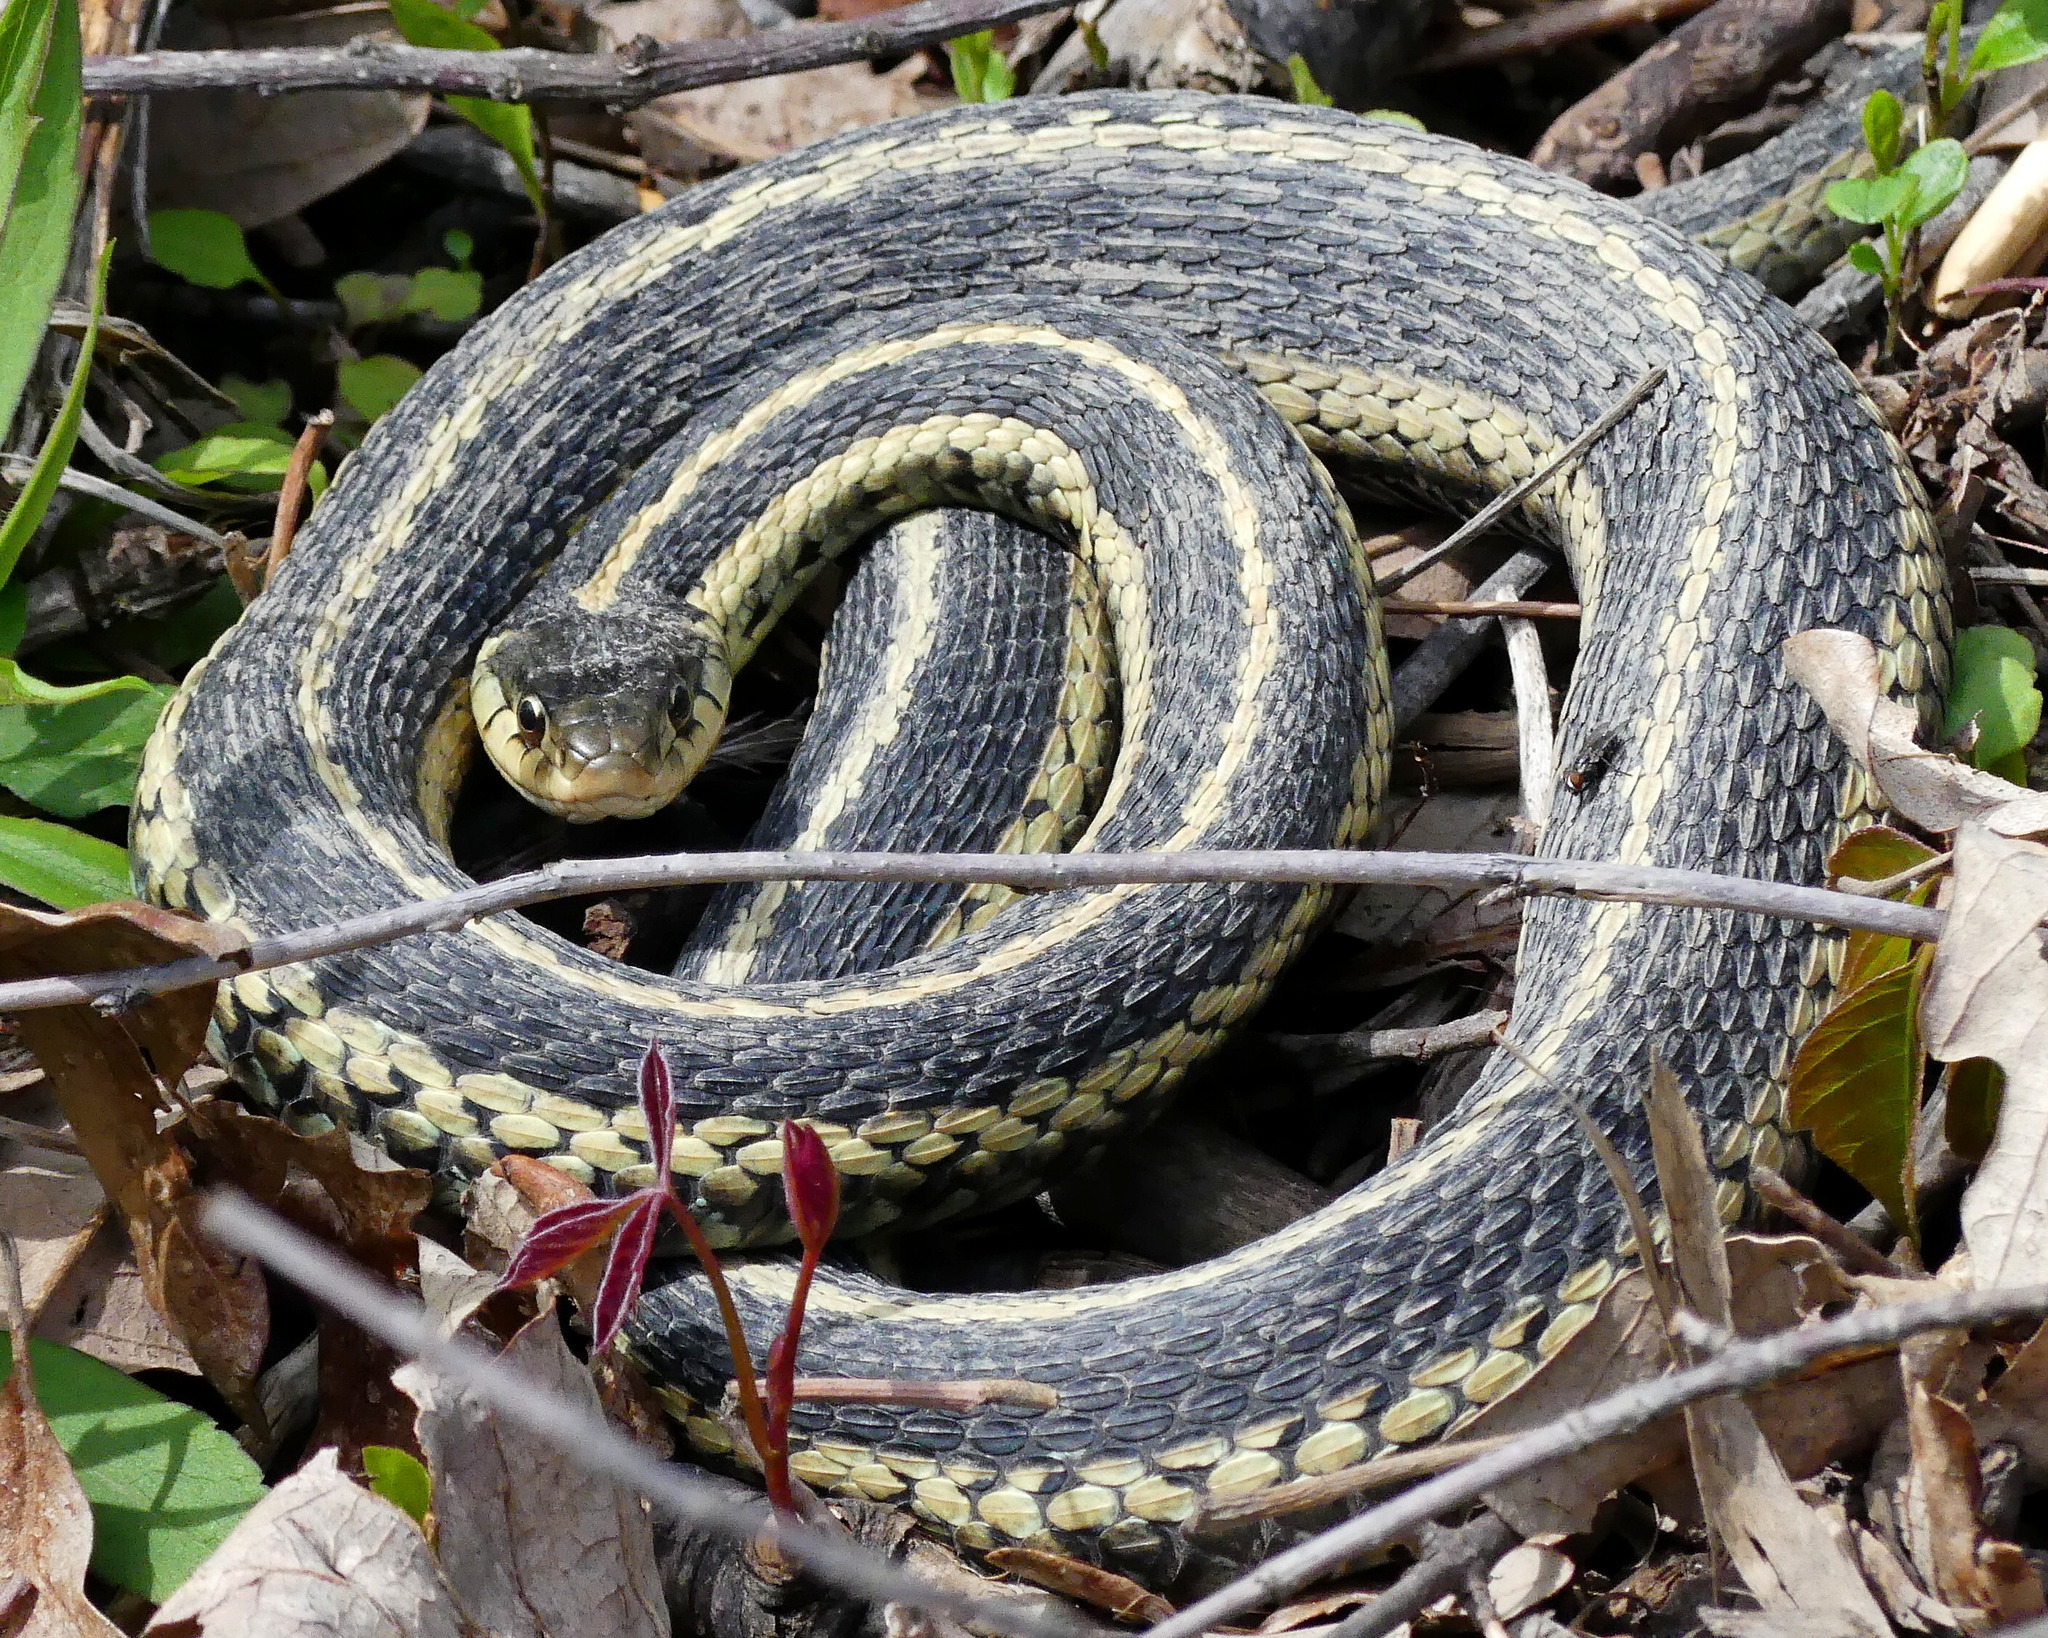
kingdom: Animalia
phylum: Chordata
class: Squamata
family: Colubridae
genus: Thamnophis
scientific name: Thamnophis sirtalis
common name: Common garter snake
